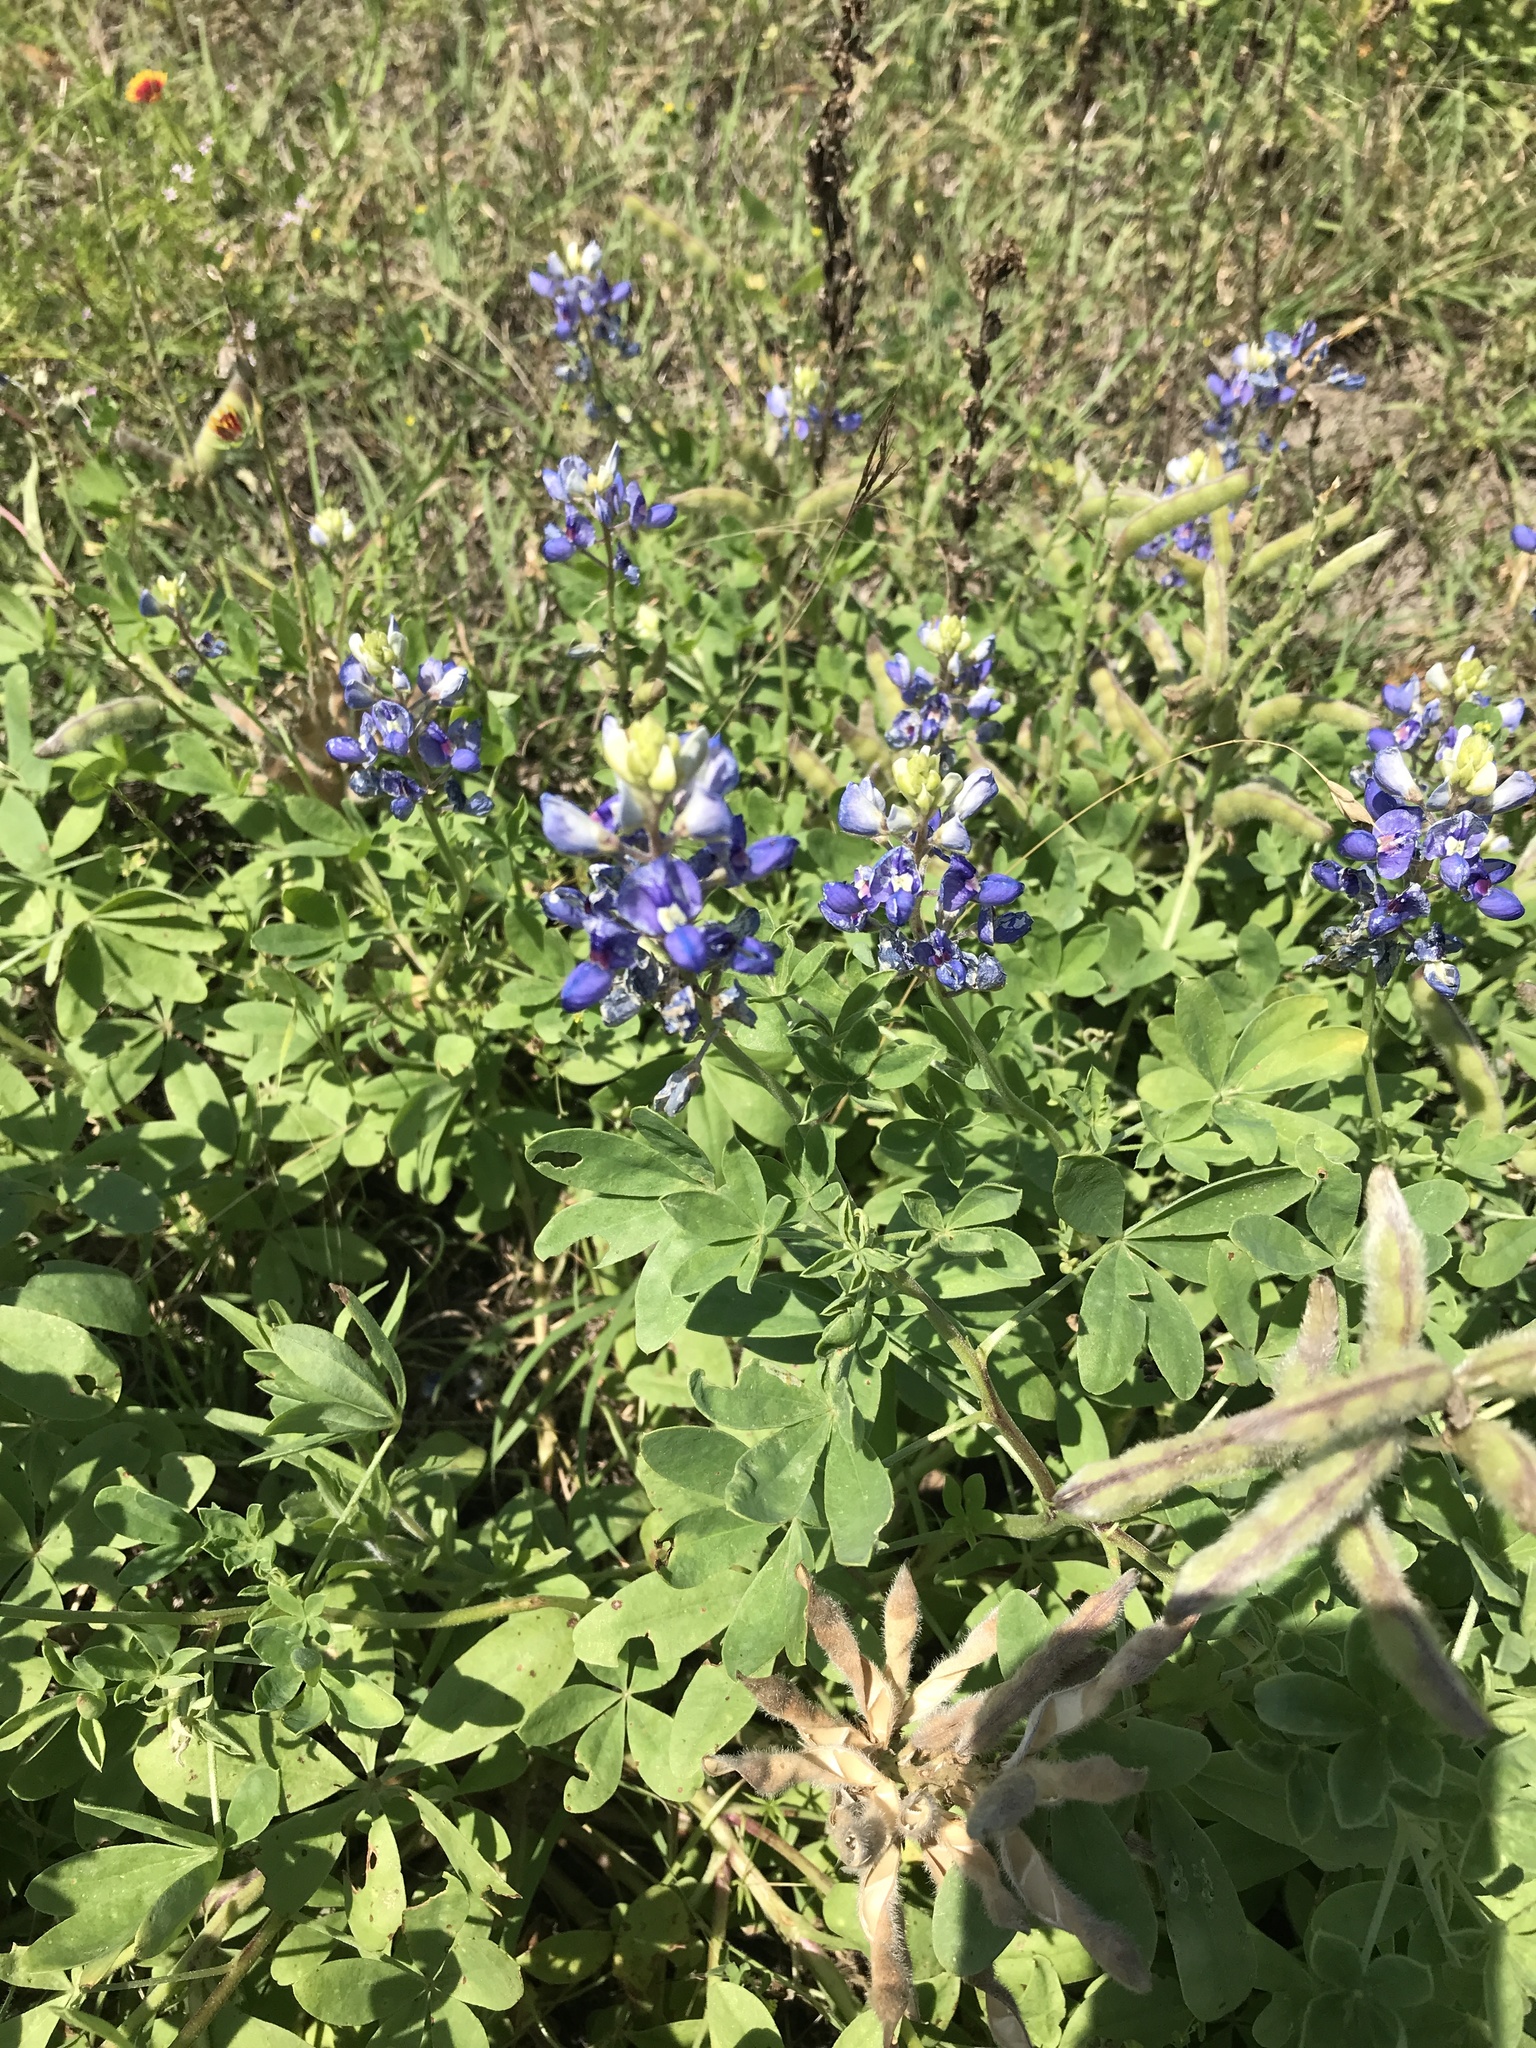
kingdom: Plantae
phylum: Tracheophyta
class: Magnoliopsida
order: Fabales
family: Fabaceae
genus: Lupinus
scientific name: Lupinus texensis
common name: Texas bluebonnet
